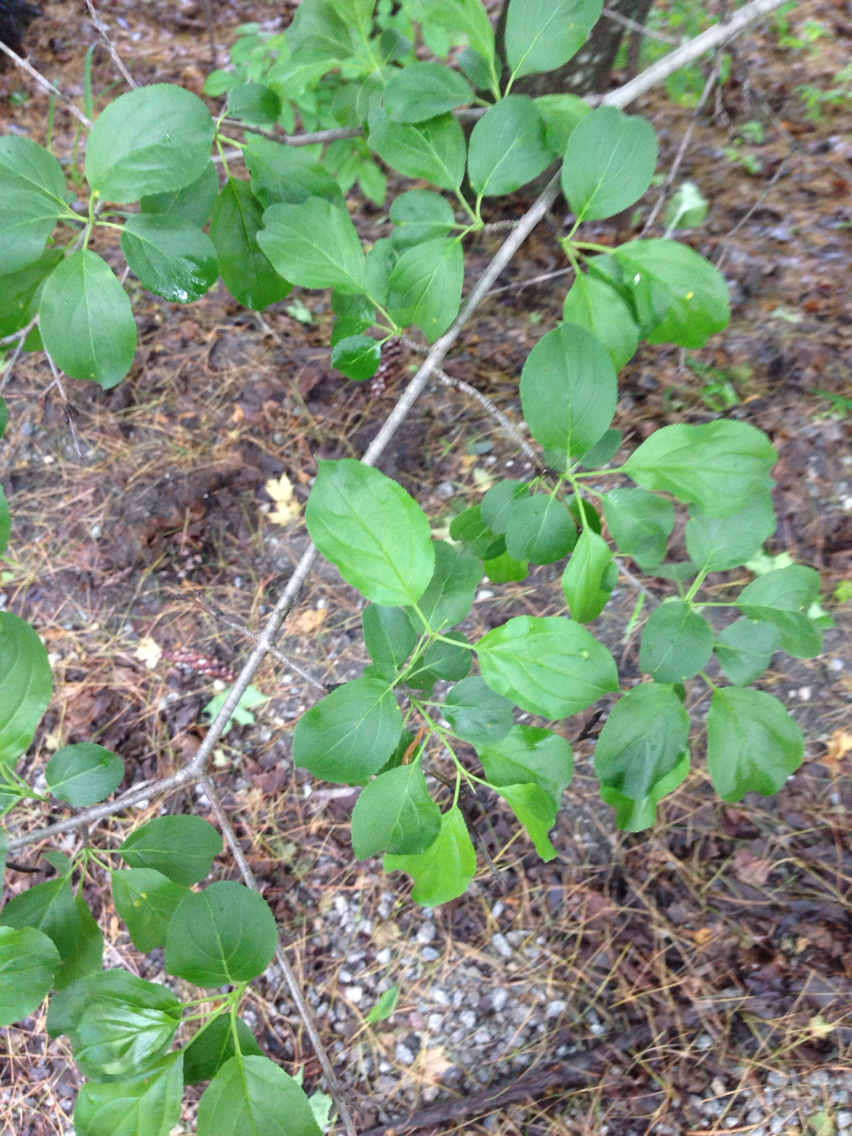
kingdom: Plantae
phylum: Tracheophyta
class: Magnoliopsida
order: Rosales
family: Rhamnaceae
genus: Rhamnus
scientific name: Rhamnus cathartica
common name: Common buckthorn
